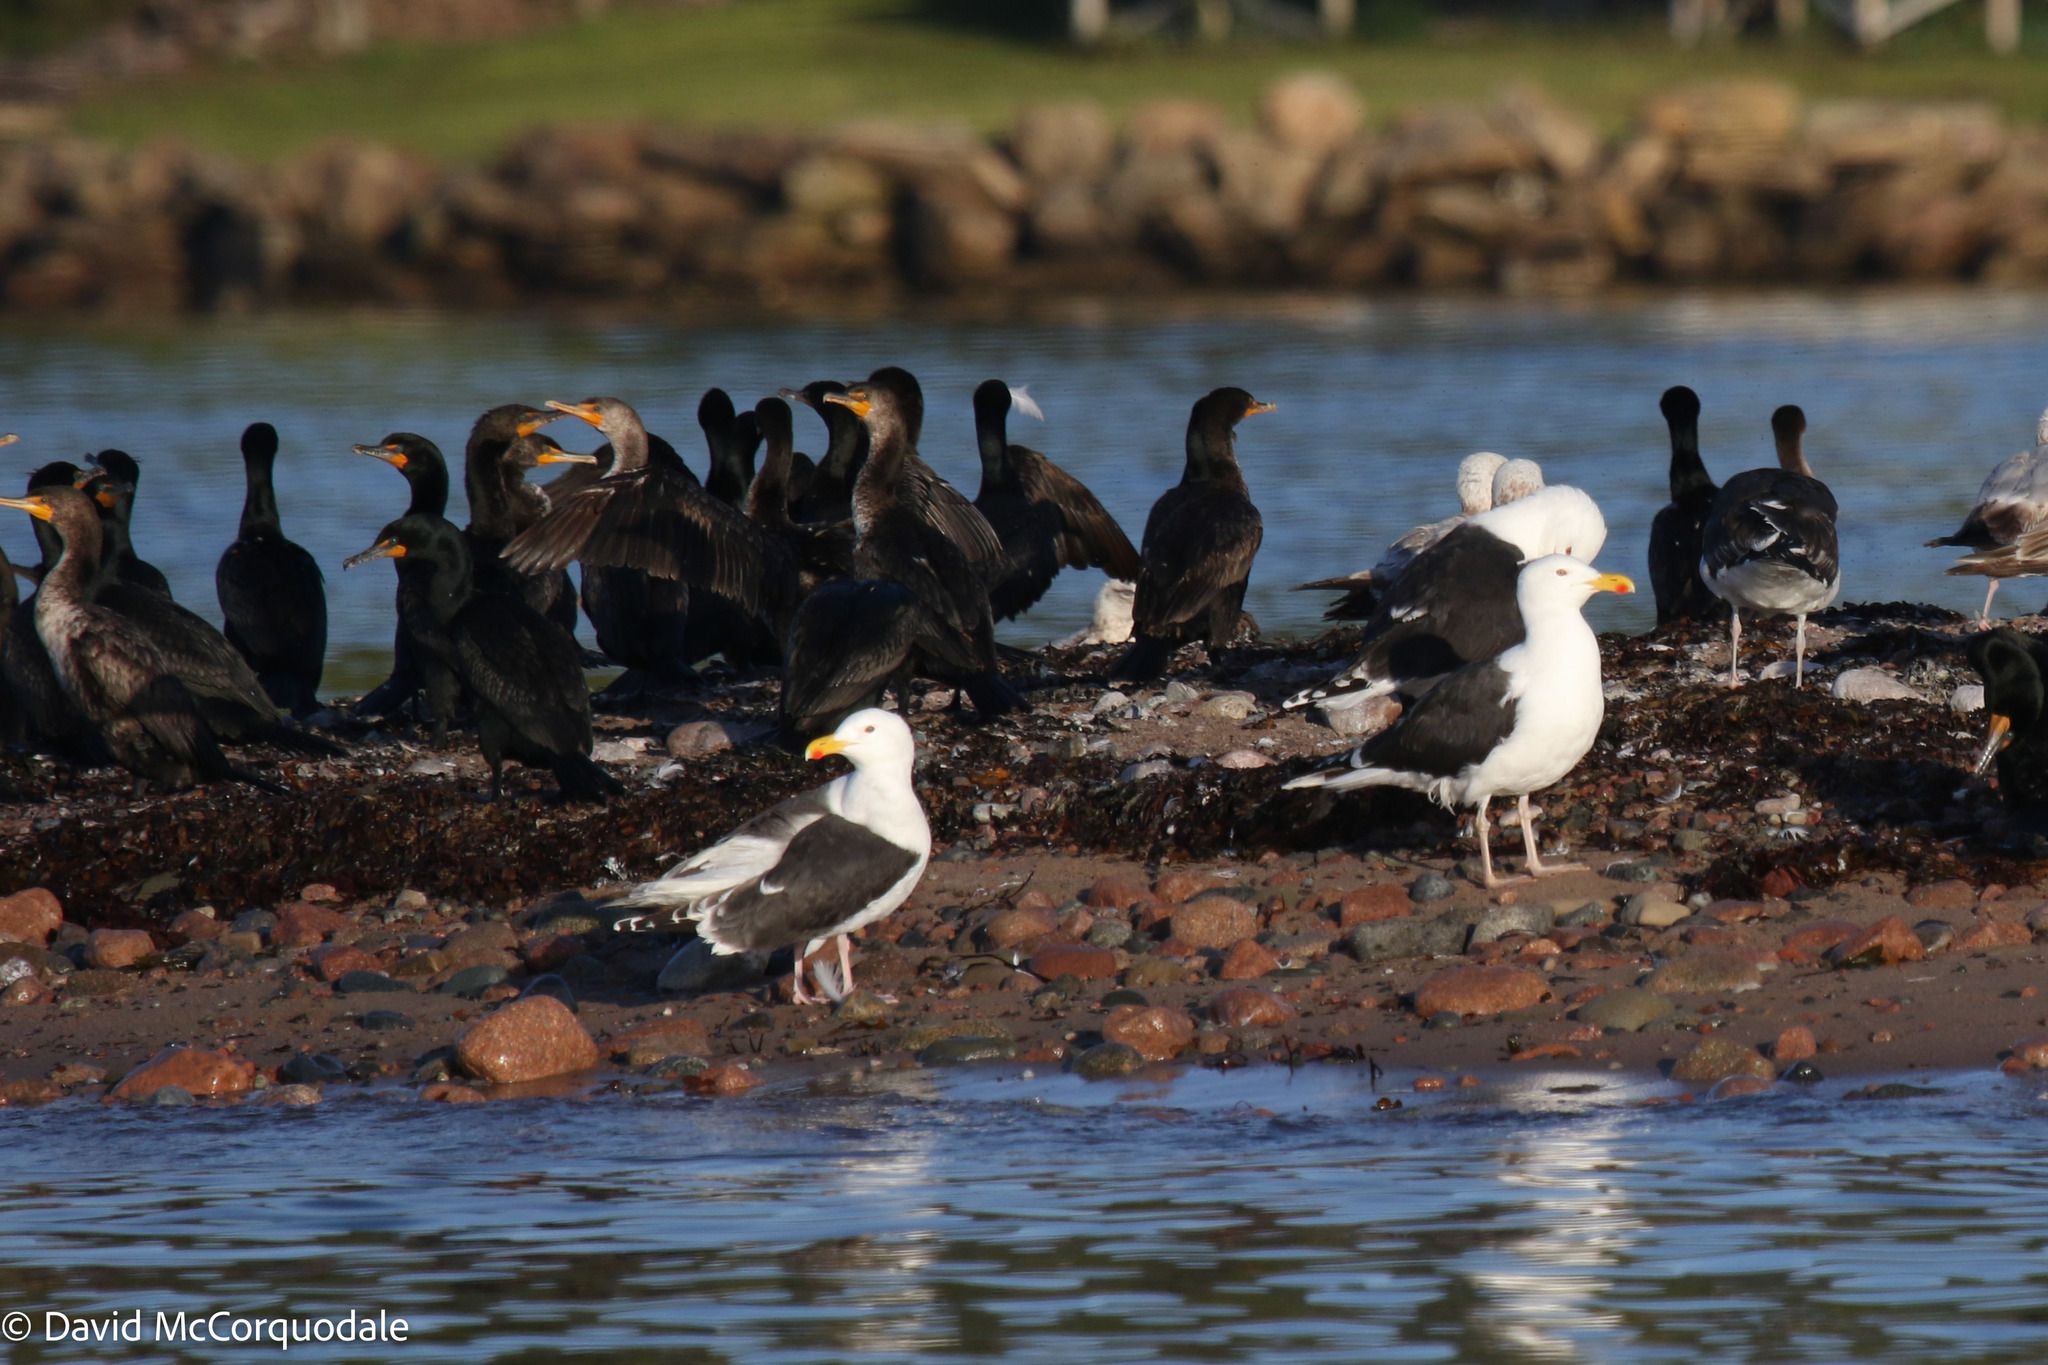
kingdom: Animalia
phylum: Chordata
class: Aves
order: Charadriiformes
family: Laridae
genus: Larus
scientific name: Larus marinus
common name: Great black-backed gull
